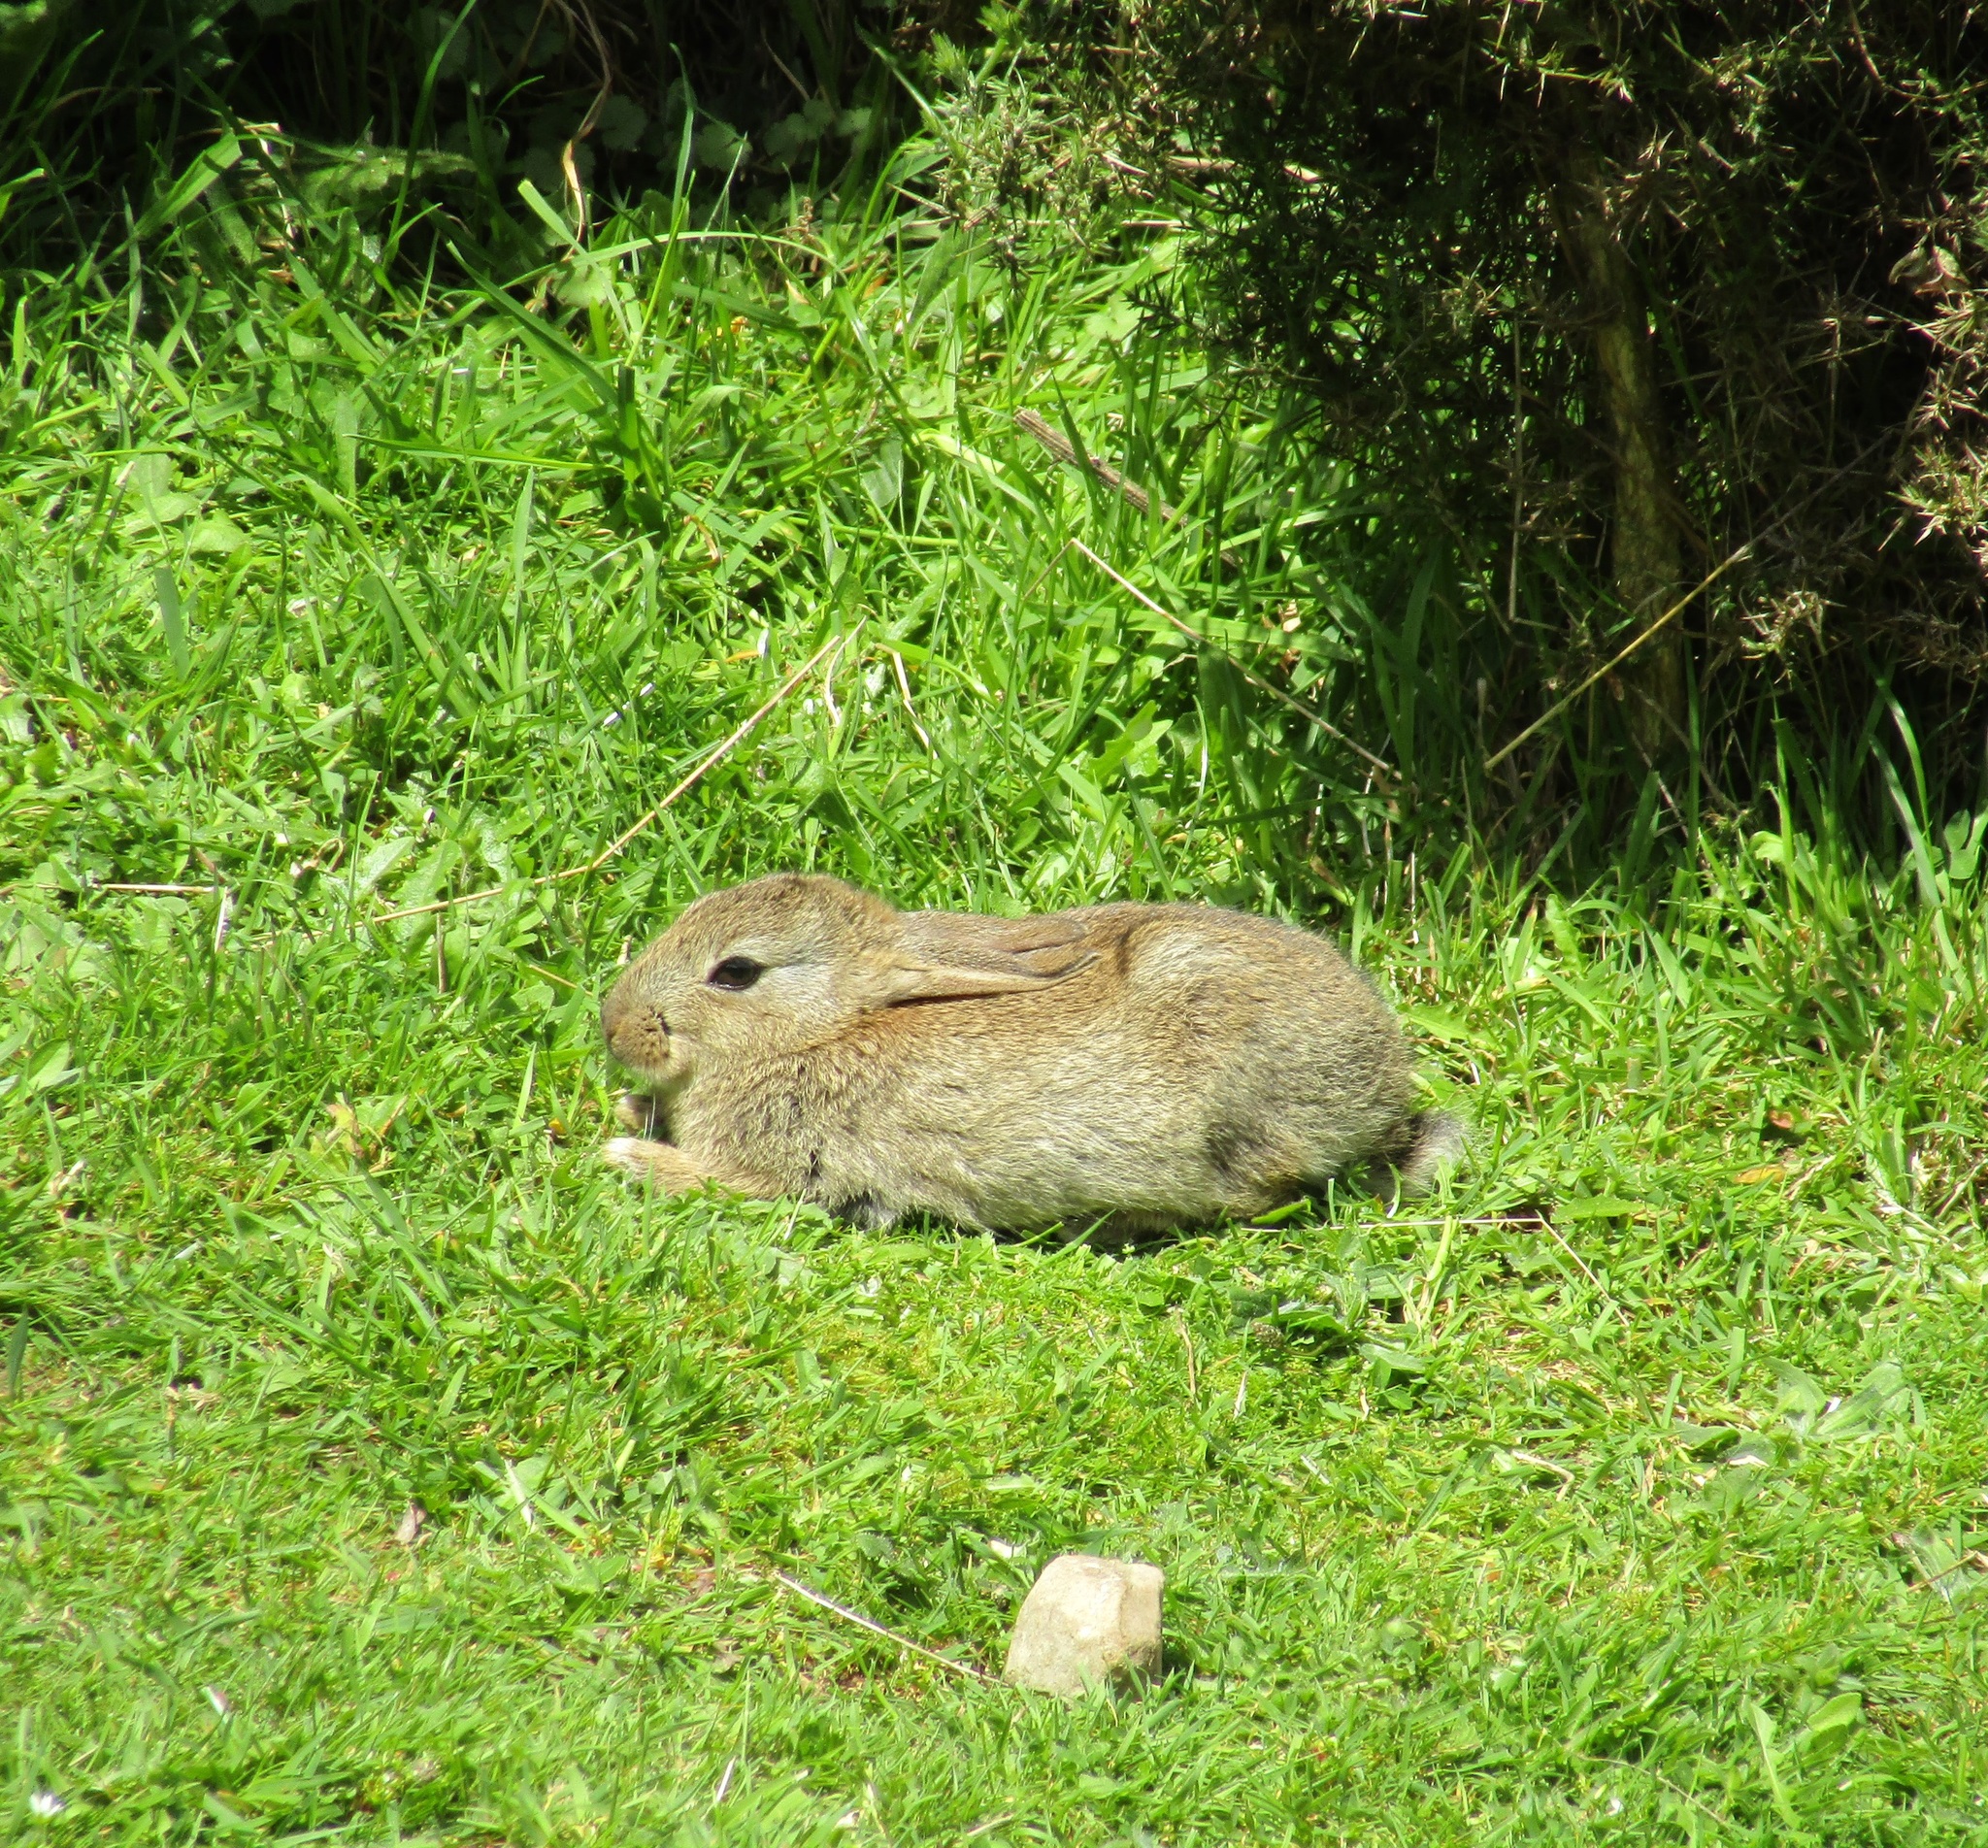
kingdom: Animalia
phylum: Chordata
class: Mammalia
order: Lagomorpha
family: Leporidae
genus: Oryctolagus
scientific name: Oryctolagus cuniculus
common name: European rabbit
